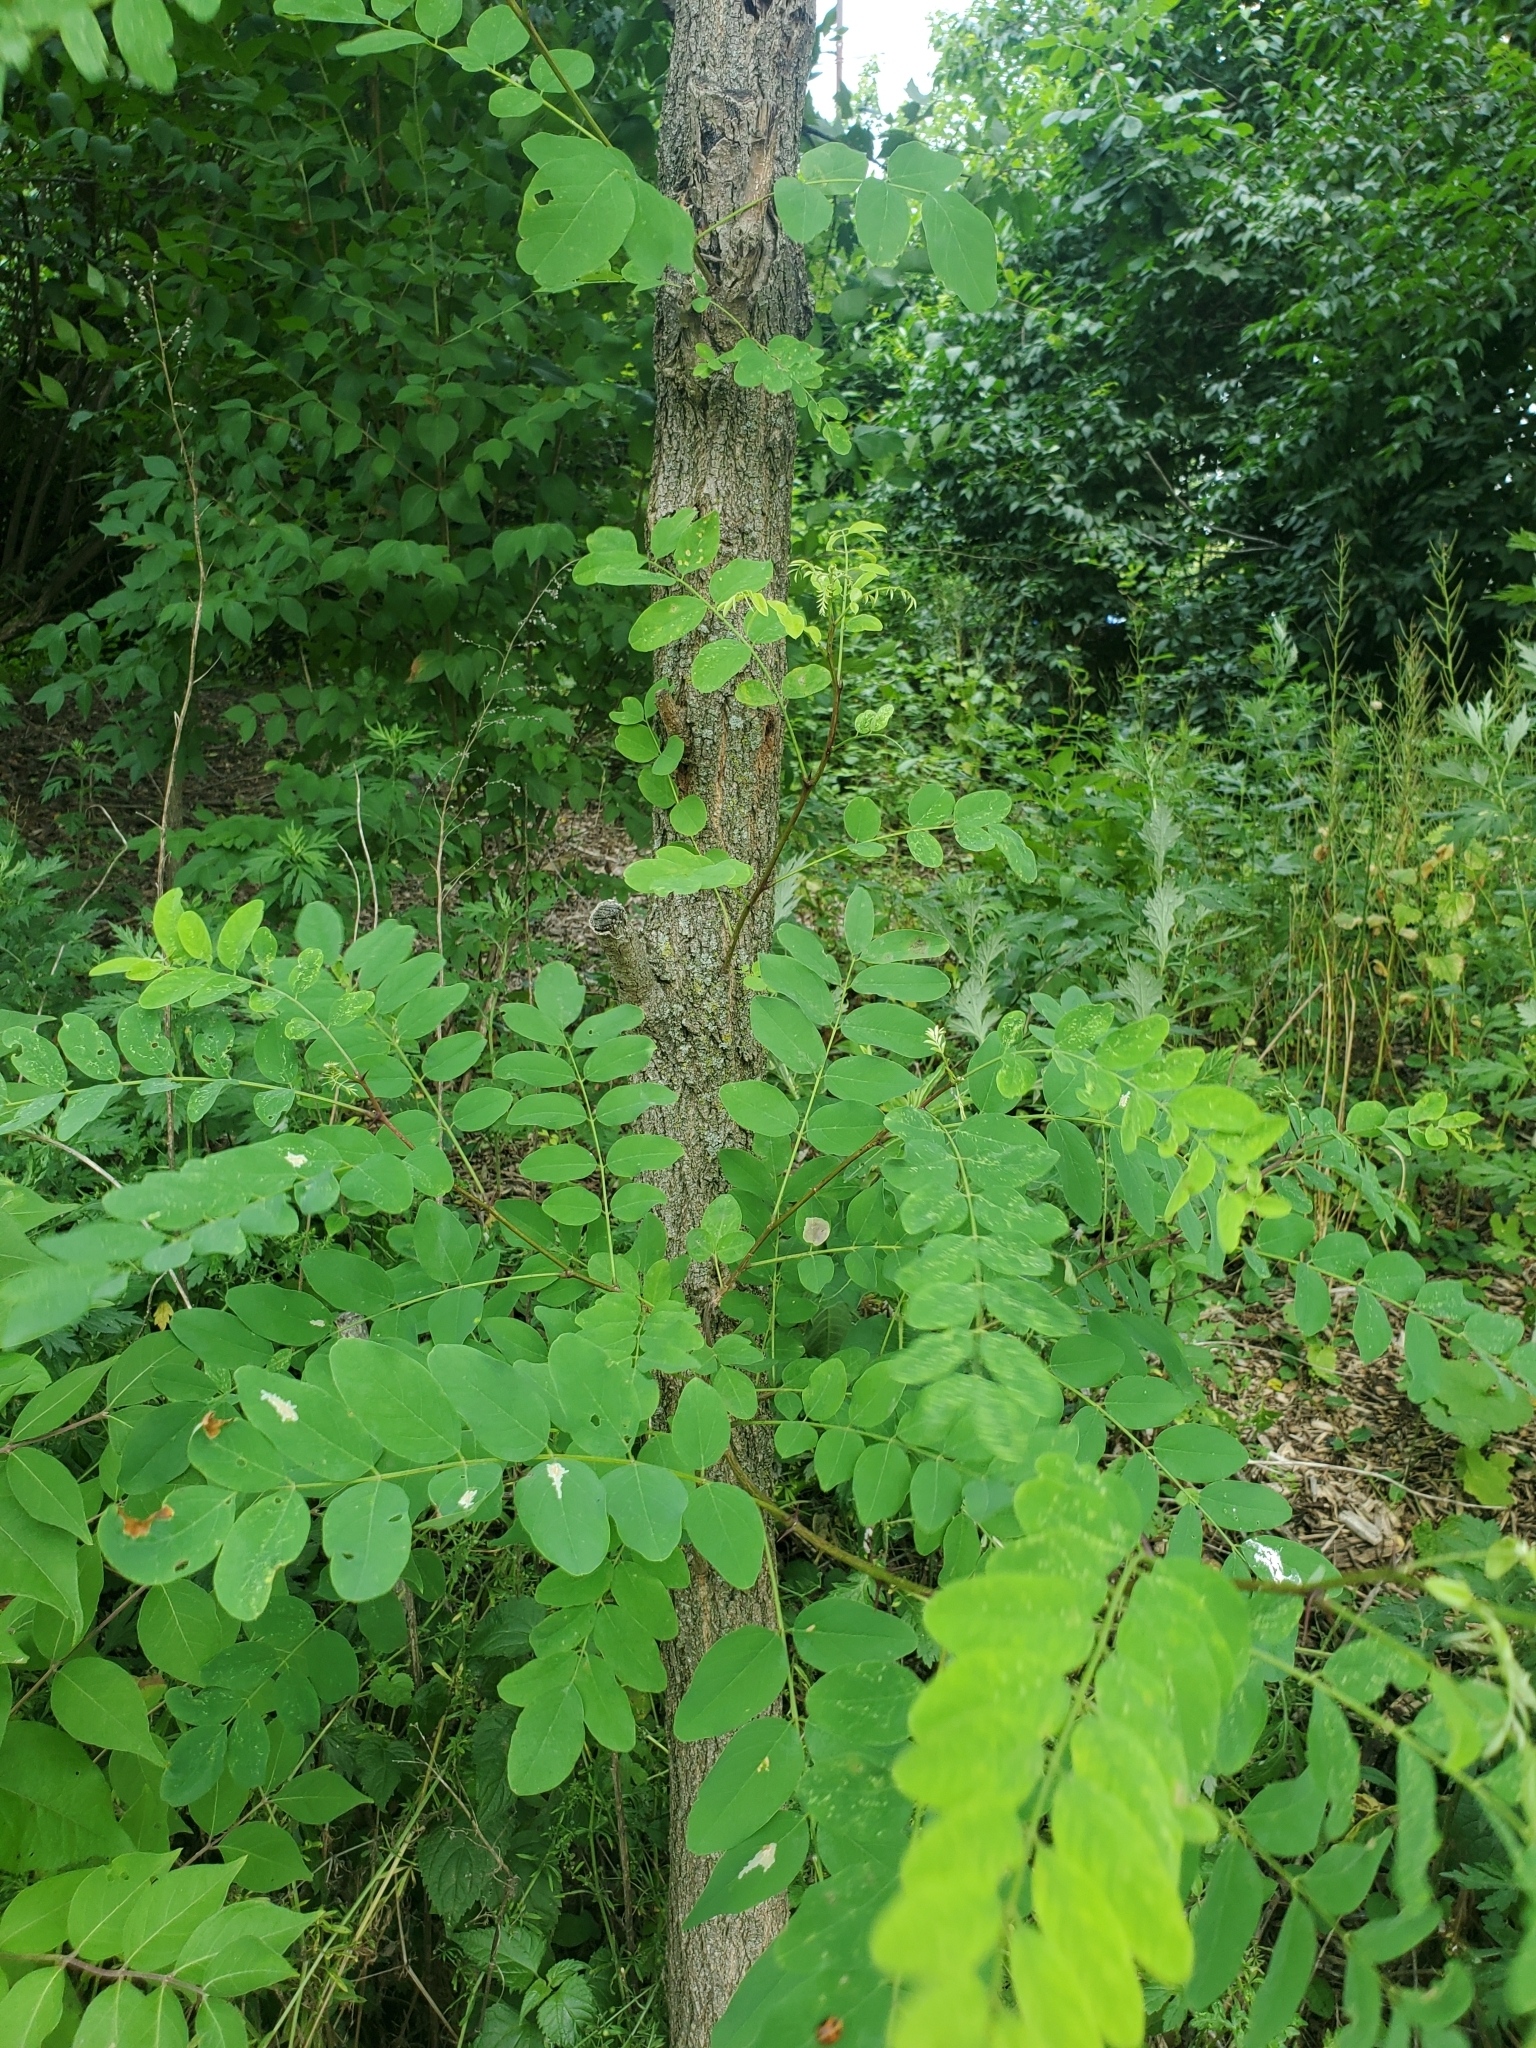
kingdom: Plantae
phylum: Tracheophyta
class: Magnoliopsida
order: Fabales
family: Fabaceae
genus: Robinia
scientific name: Robinia pseudoacacia
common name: Black locust
